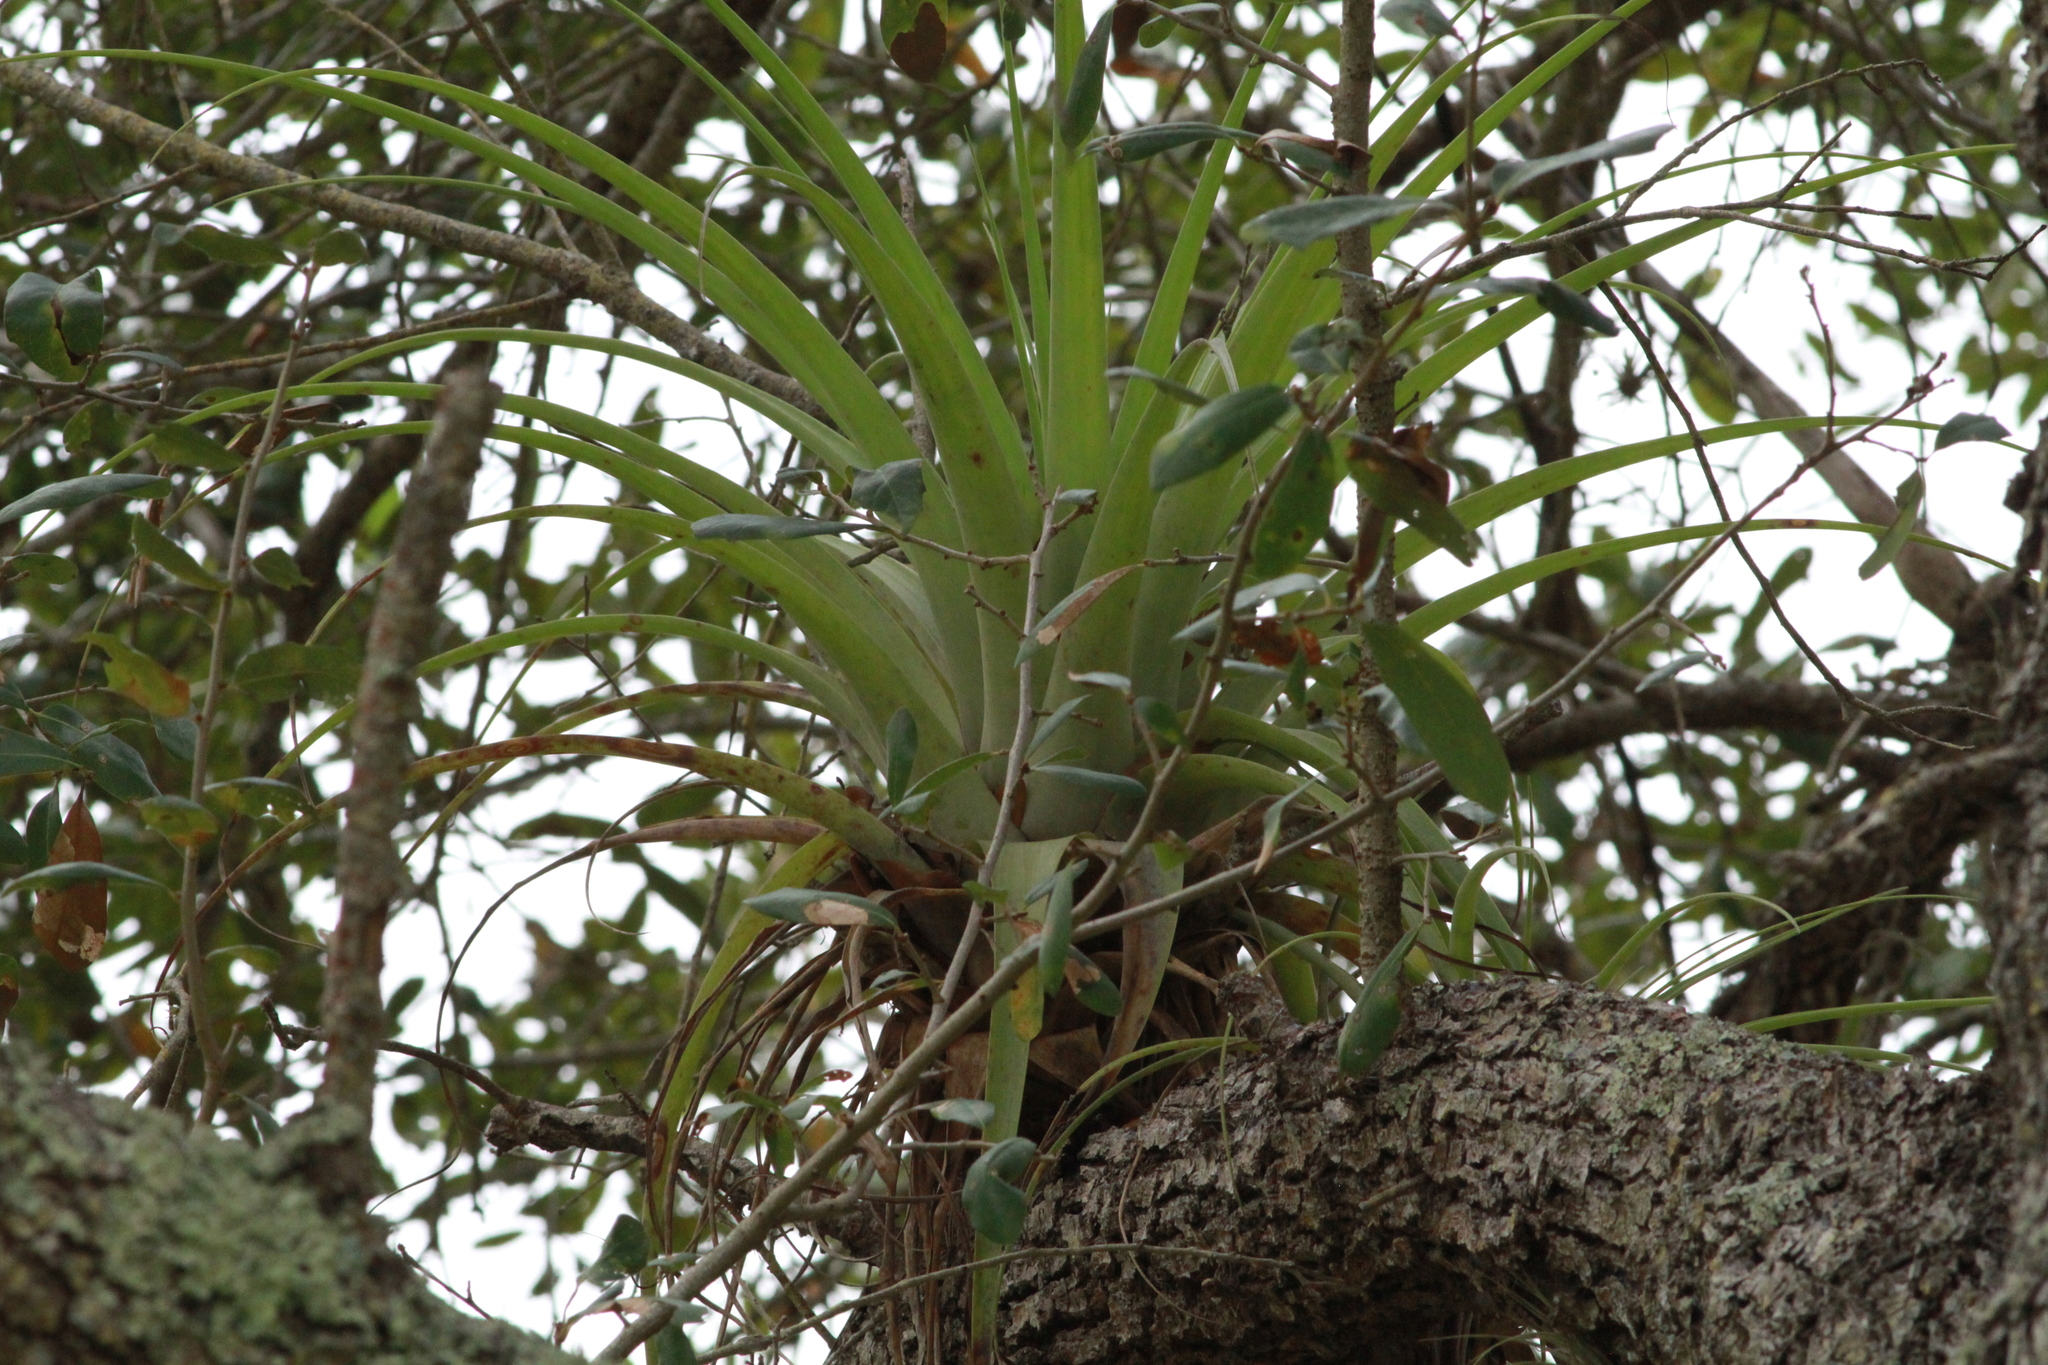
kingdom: Plantae
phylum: Tracheophyta
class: Liliopsida
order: Poales
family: Bromeliaceae
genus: Tillandsia
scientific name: Tillandsia utriculata
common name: Wild pine
